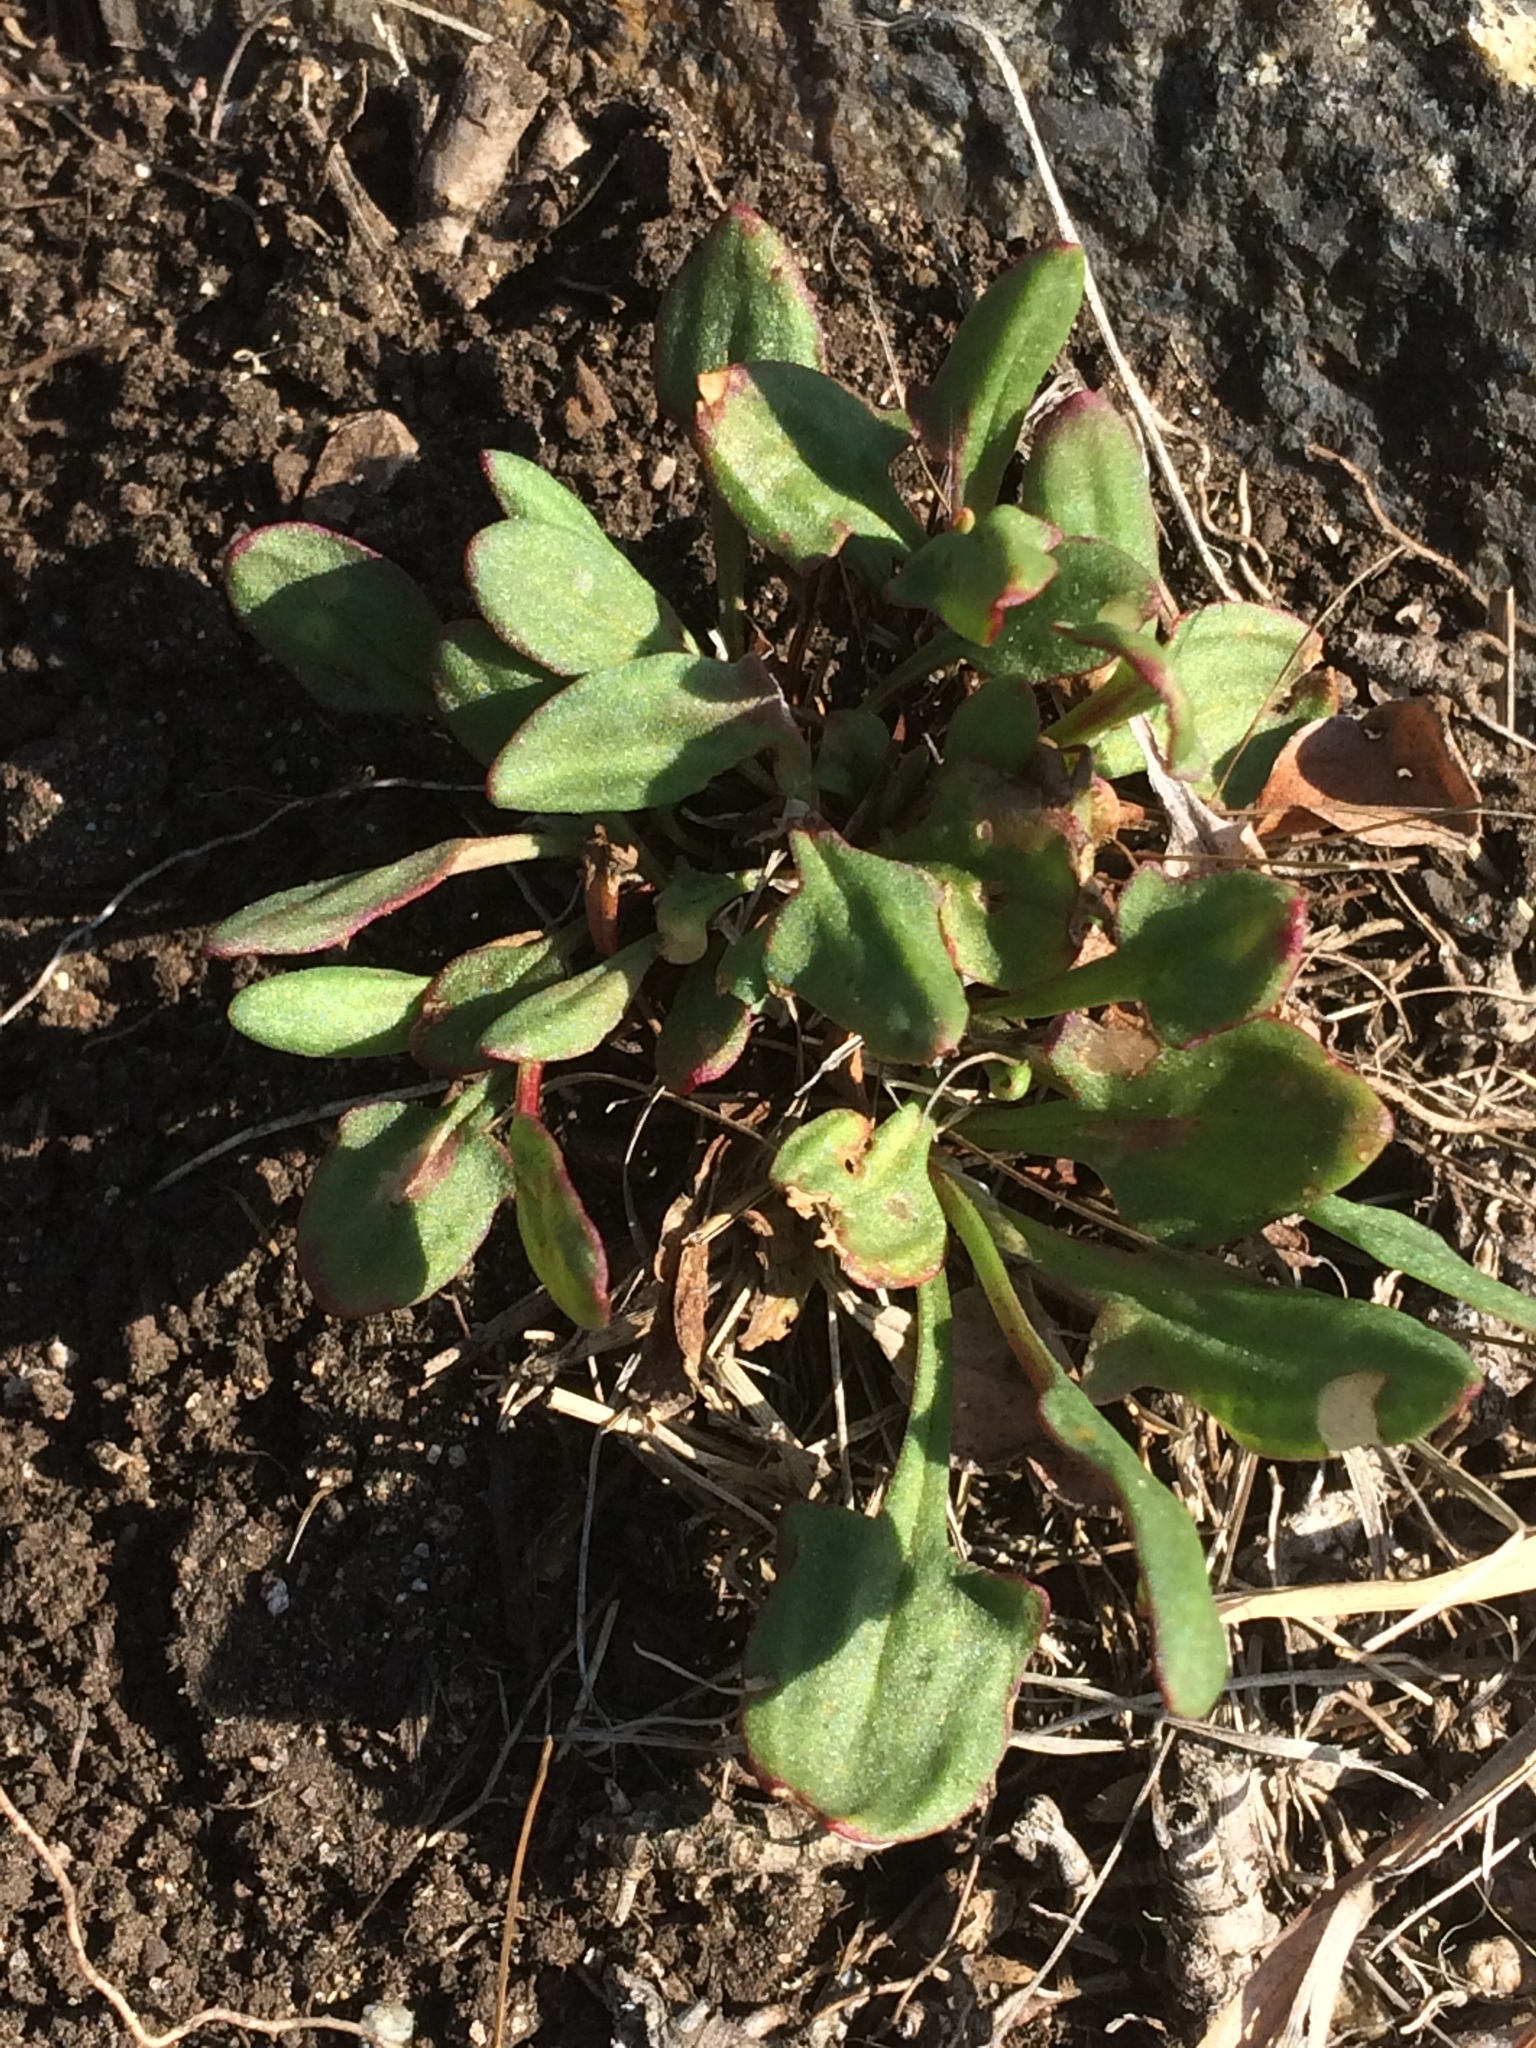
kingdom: Plantae
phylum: Tracheophyta
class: Magnoliopsida
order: Caryophyllales
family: Polygonaceae
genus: Rumex
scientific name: Rumex acetosella
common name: Common sheep sorrel
